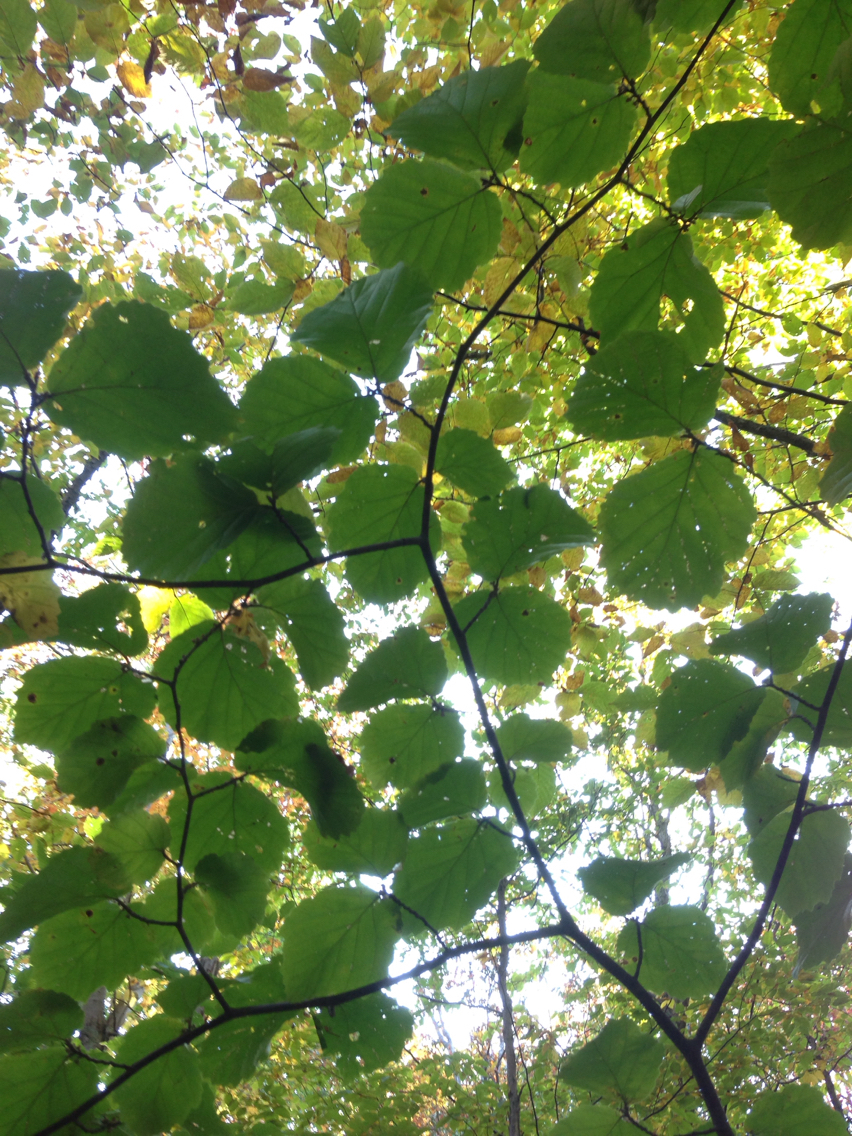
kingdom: Plantae
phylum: Tracheophyta
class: Magnoliopsida
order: Saxifragales
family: Hamamelidaceae
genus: Hamamelis
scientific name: Hamamelis virginiana
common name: Witch-hazel
